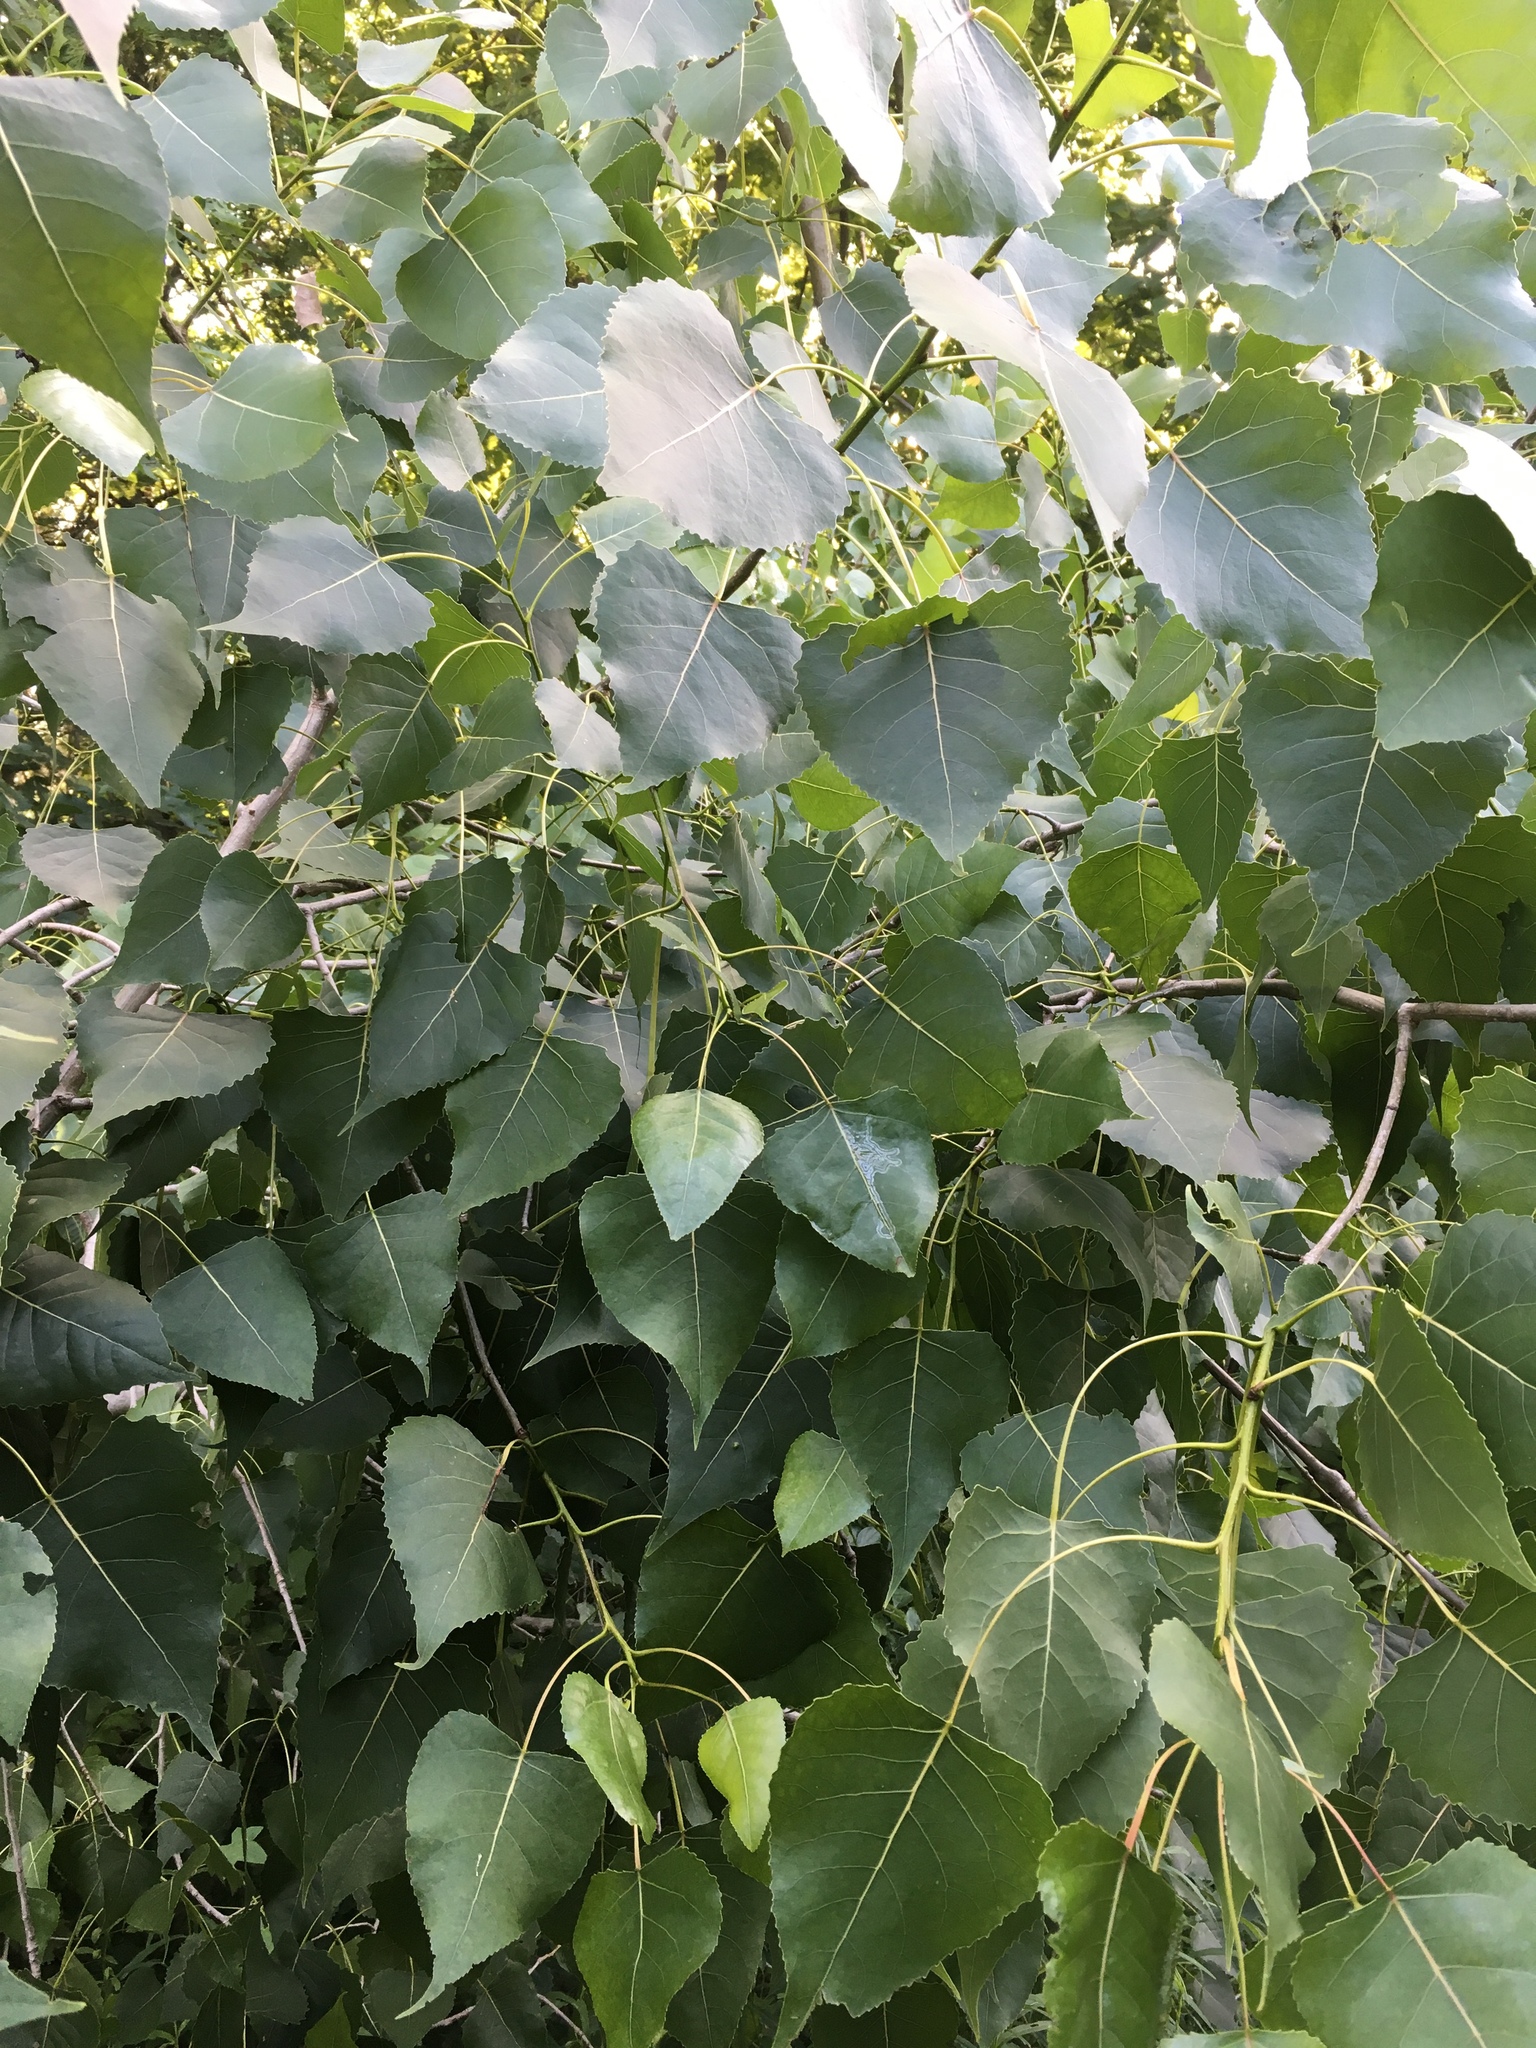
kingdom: Plantae
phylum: Tracheophyta
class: Magnoliopsida
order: Malpighiales
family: Salicaceae
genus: Populus
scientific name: Populus deltoides
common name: Eastern cottonwood
